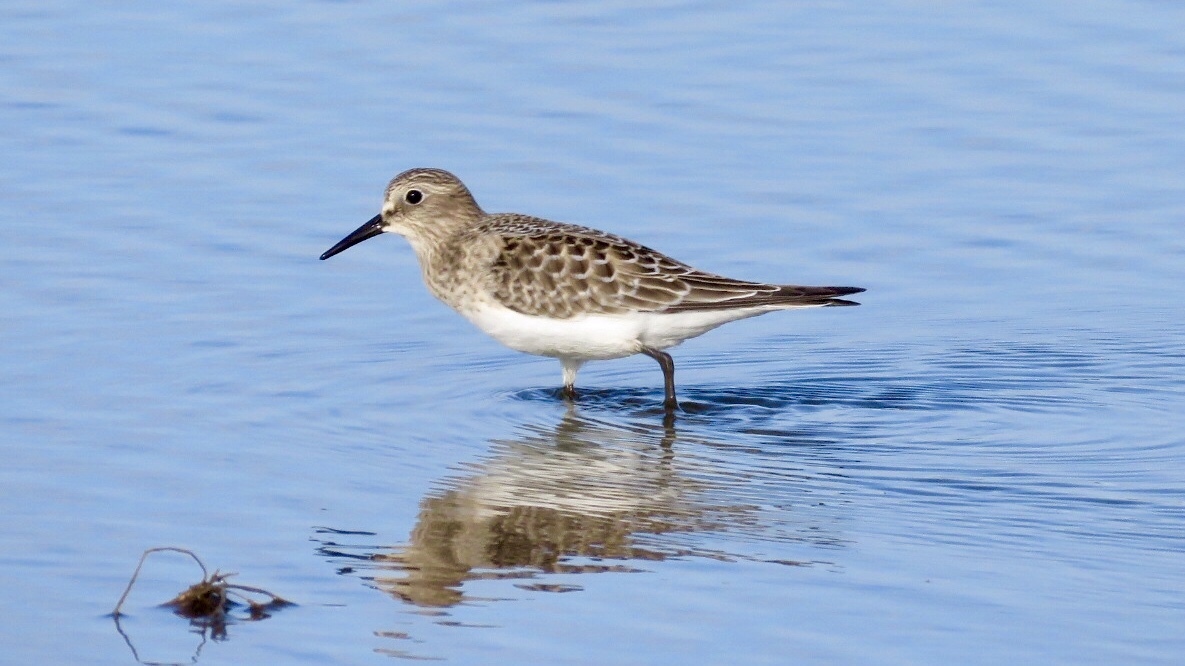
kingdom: Animalia
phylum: Chordata
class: Aves
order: Charadriiformes
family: Scolopacidae
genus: Calidris
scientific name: Calidris bairdii
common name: Baird's sandpiper
